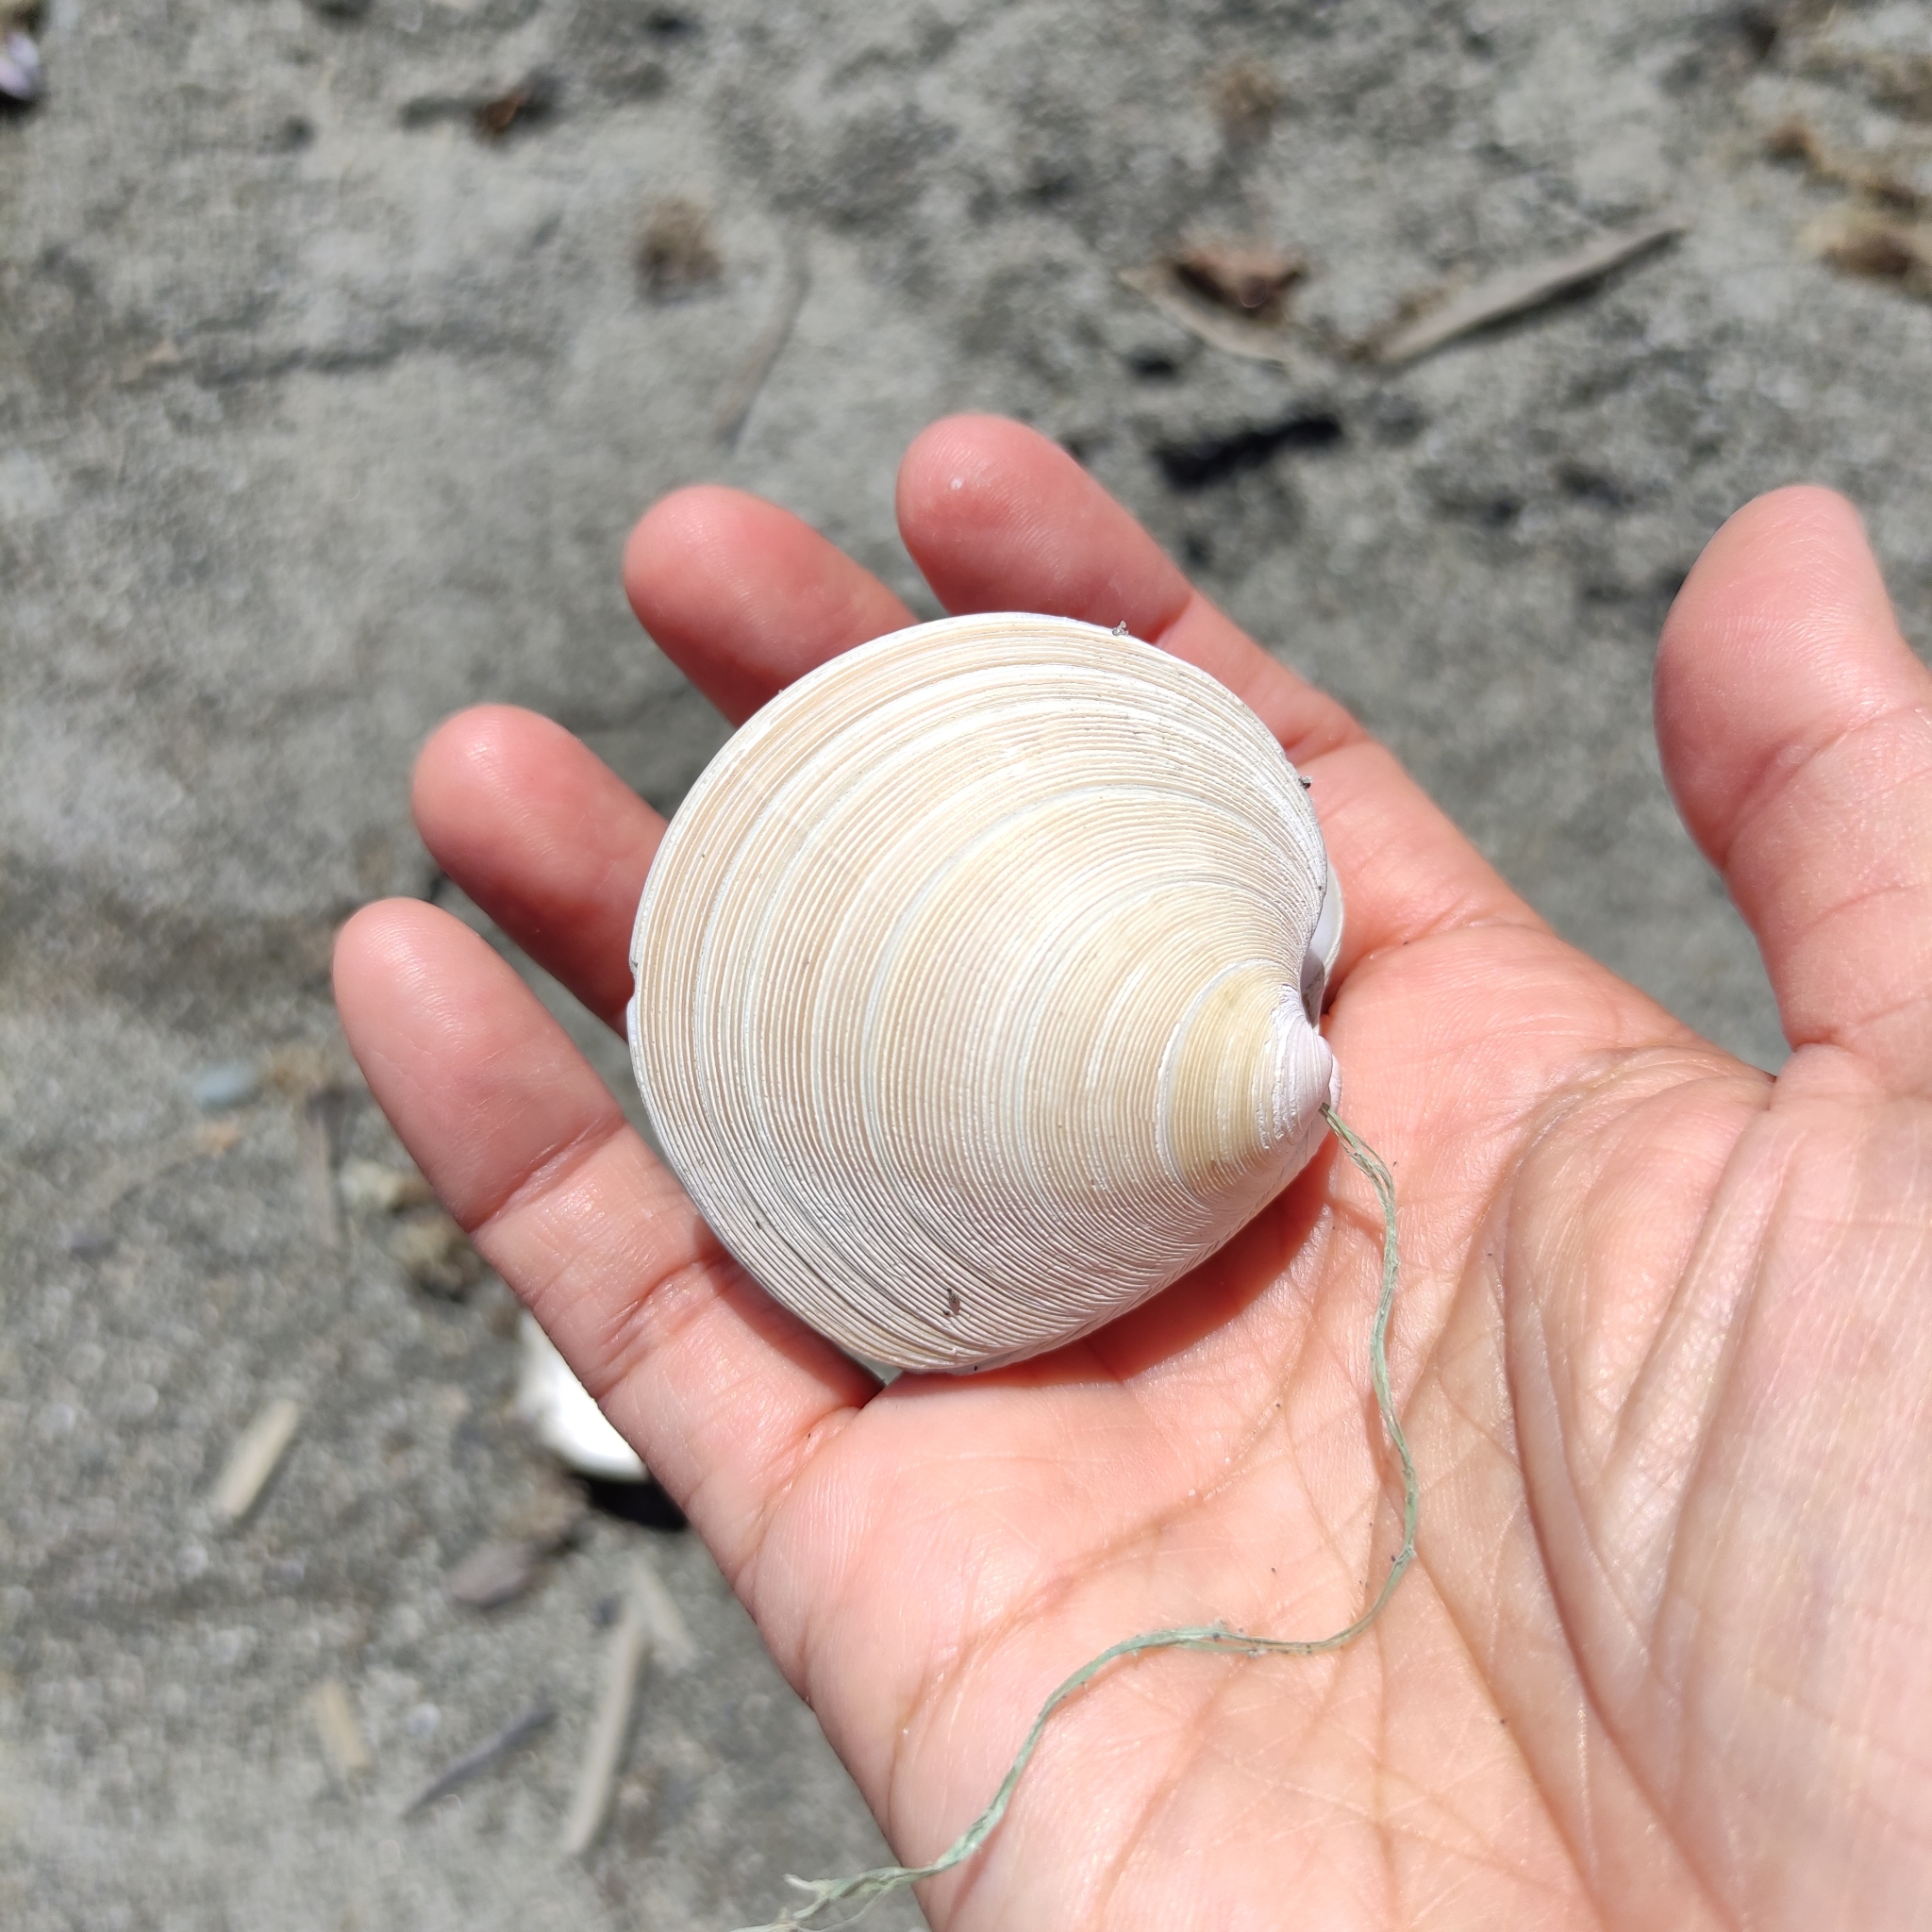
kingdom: Animalia
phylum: Mollusca
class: Bivalvia
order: Venerida
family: Veneridae
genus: Dosinia
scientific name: Dosinia anus
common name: Old-woman dosinia
